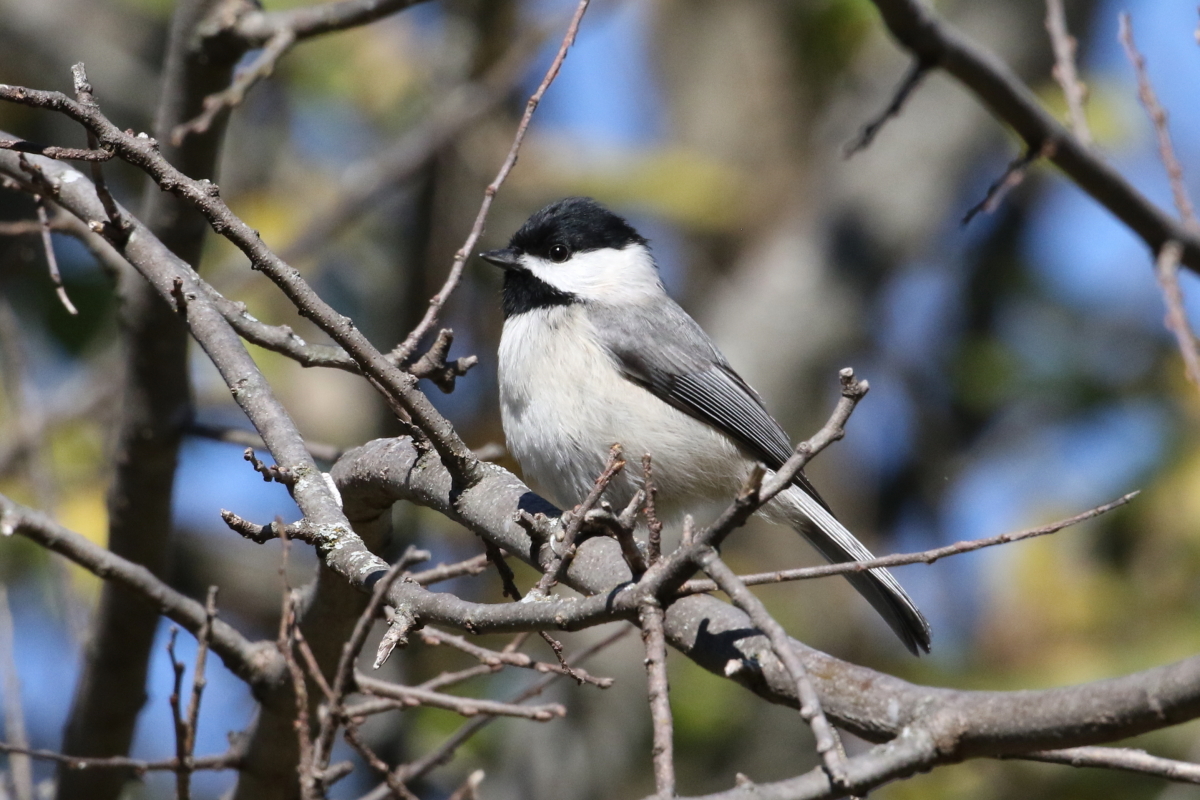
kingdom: Animalia
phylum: Chordata
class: Aves
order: Passeriformes
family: Paridae
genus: Poecile
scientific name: Poecile carolinensis
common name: Carolina chickadee
